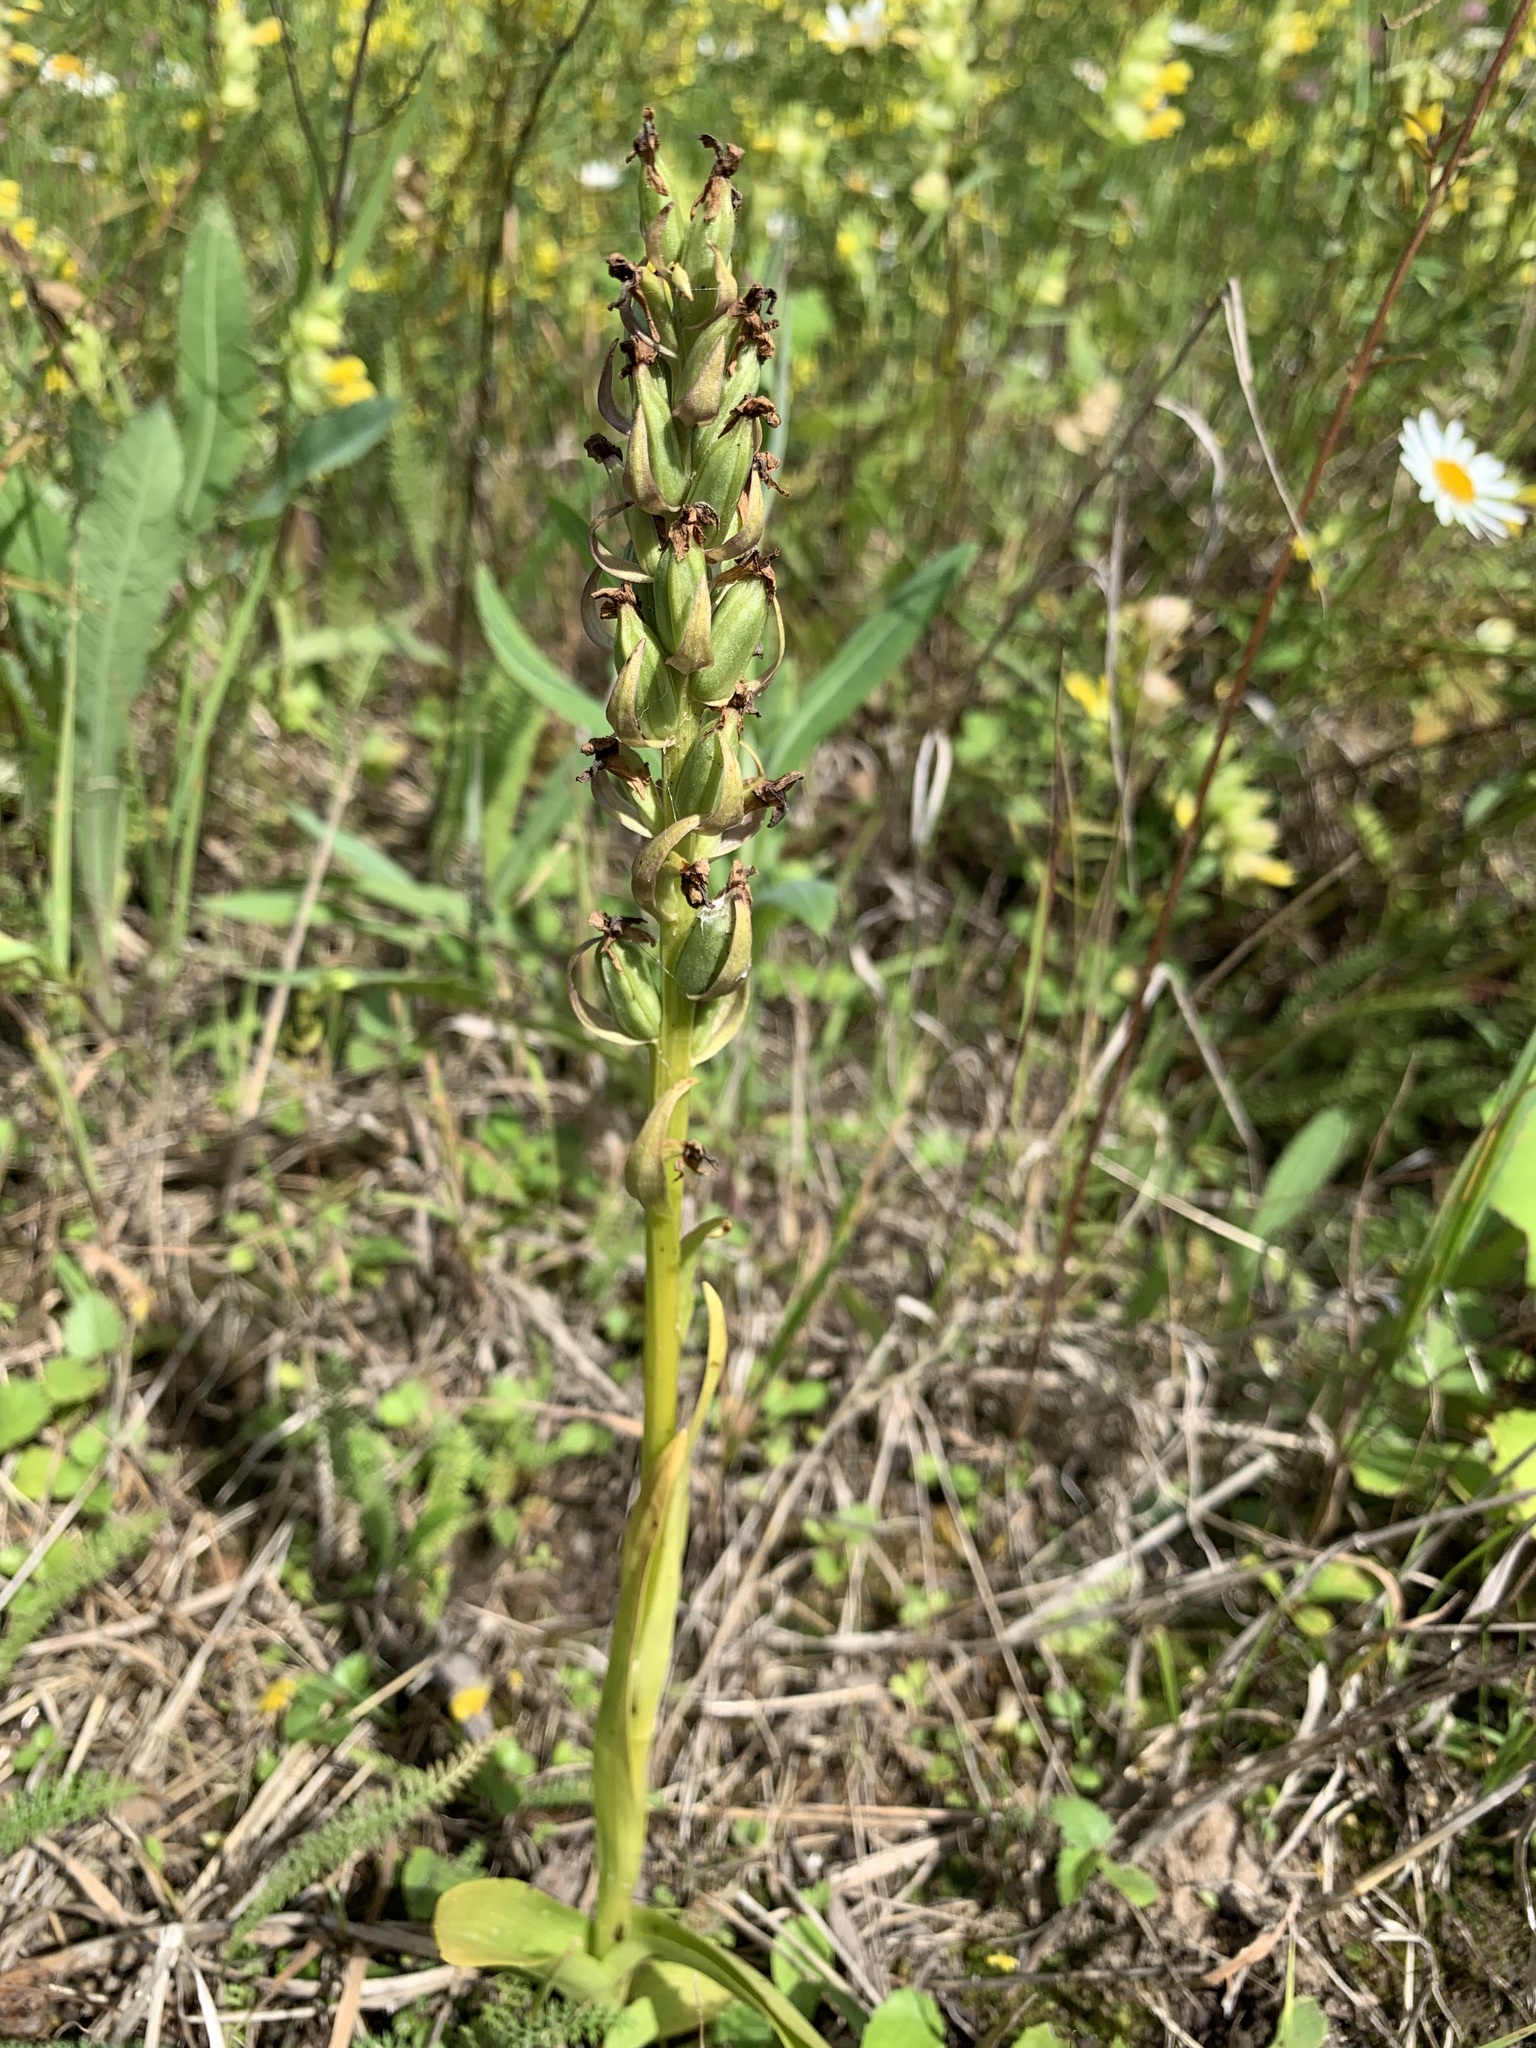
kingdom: Plantae
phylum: Tracheophyta
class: Liliopsida
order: Asparagales
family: Orchidaceae
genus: Dactylorhiza
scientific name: Dactylorhiza incarnata
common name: Early marsh-orchid
